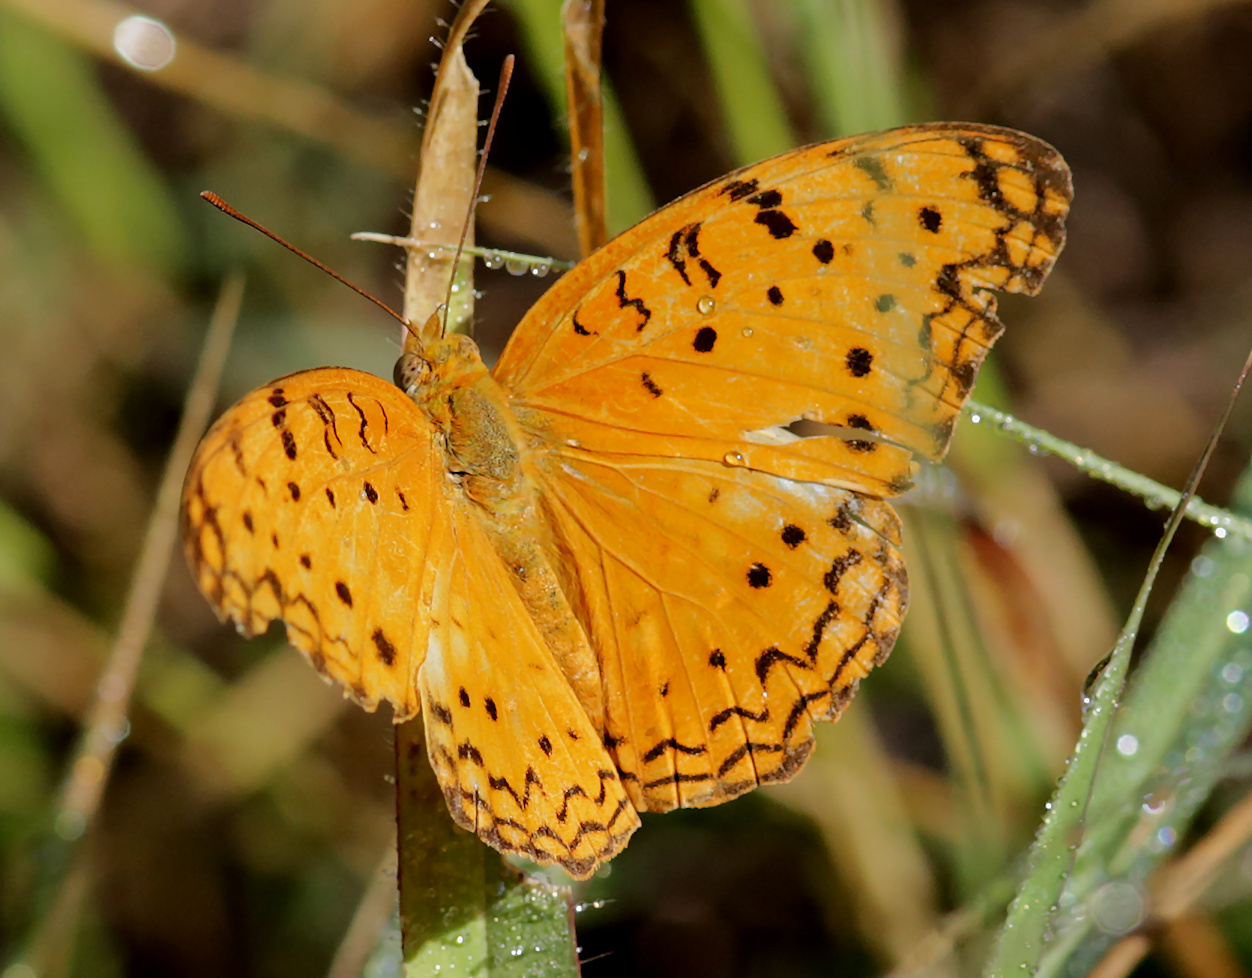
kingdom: Animalia
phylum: Arthropoda
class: Insecta
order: Lepidoptera
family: Nymphalidae
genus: Phalanta
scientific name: Phalanta phalantha
